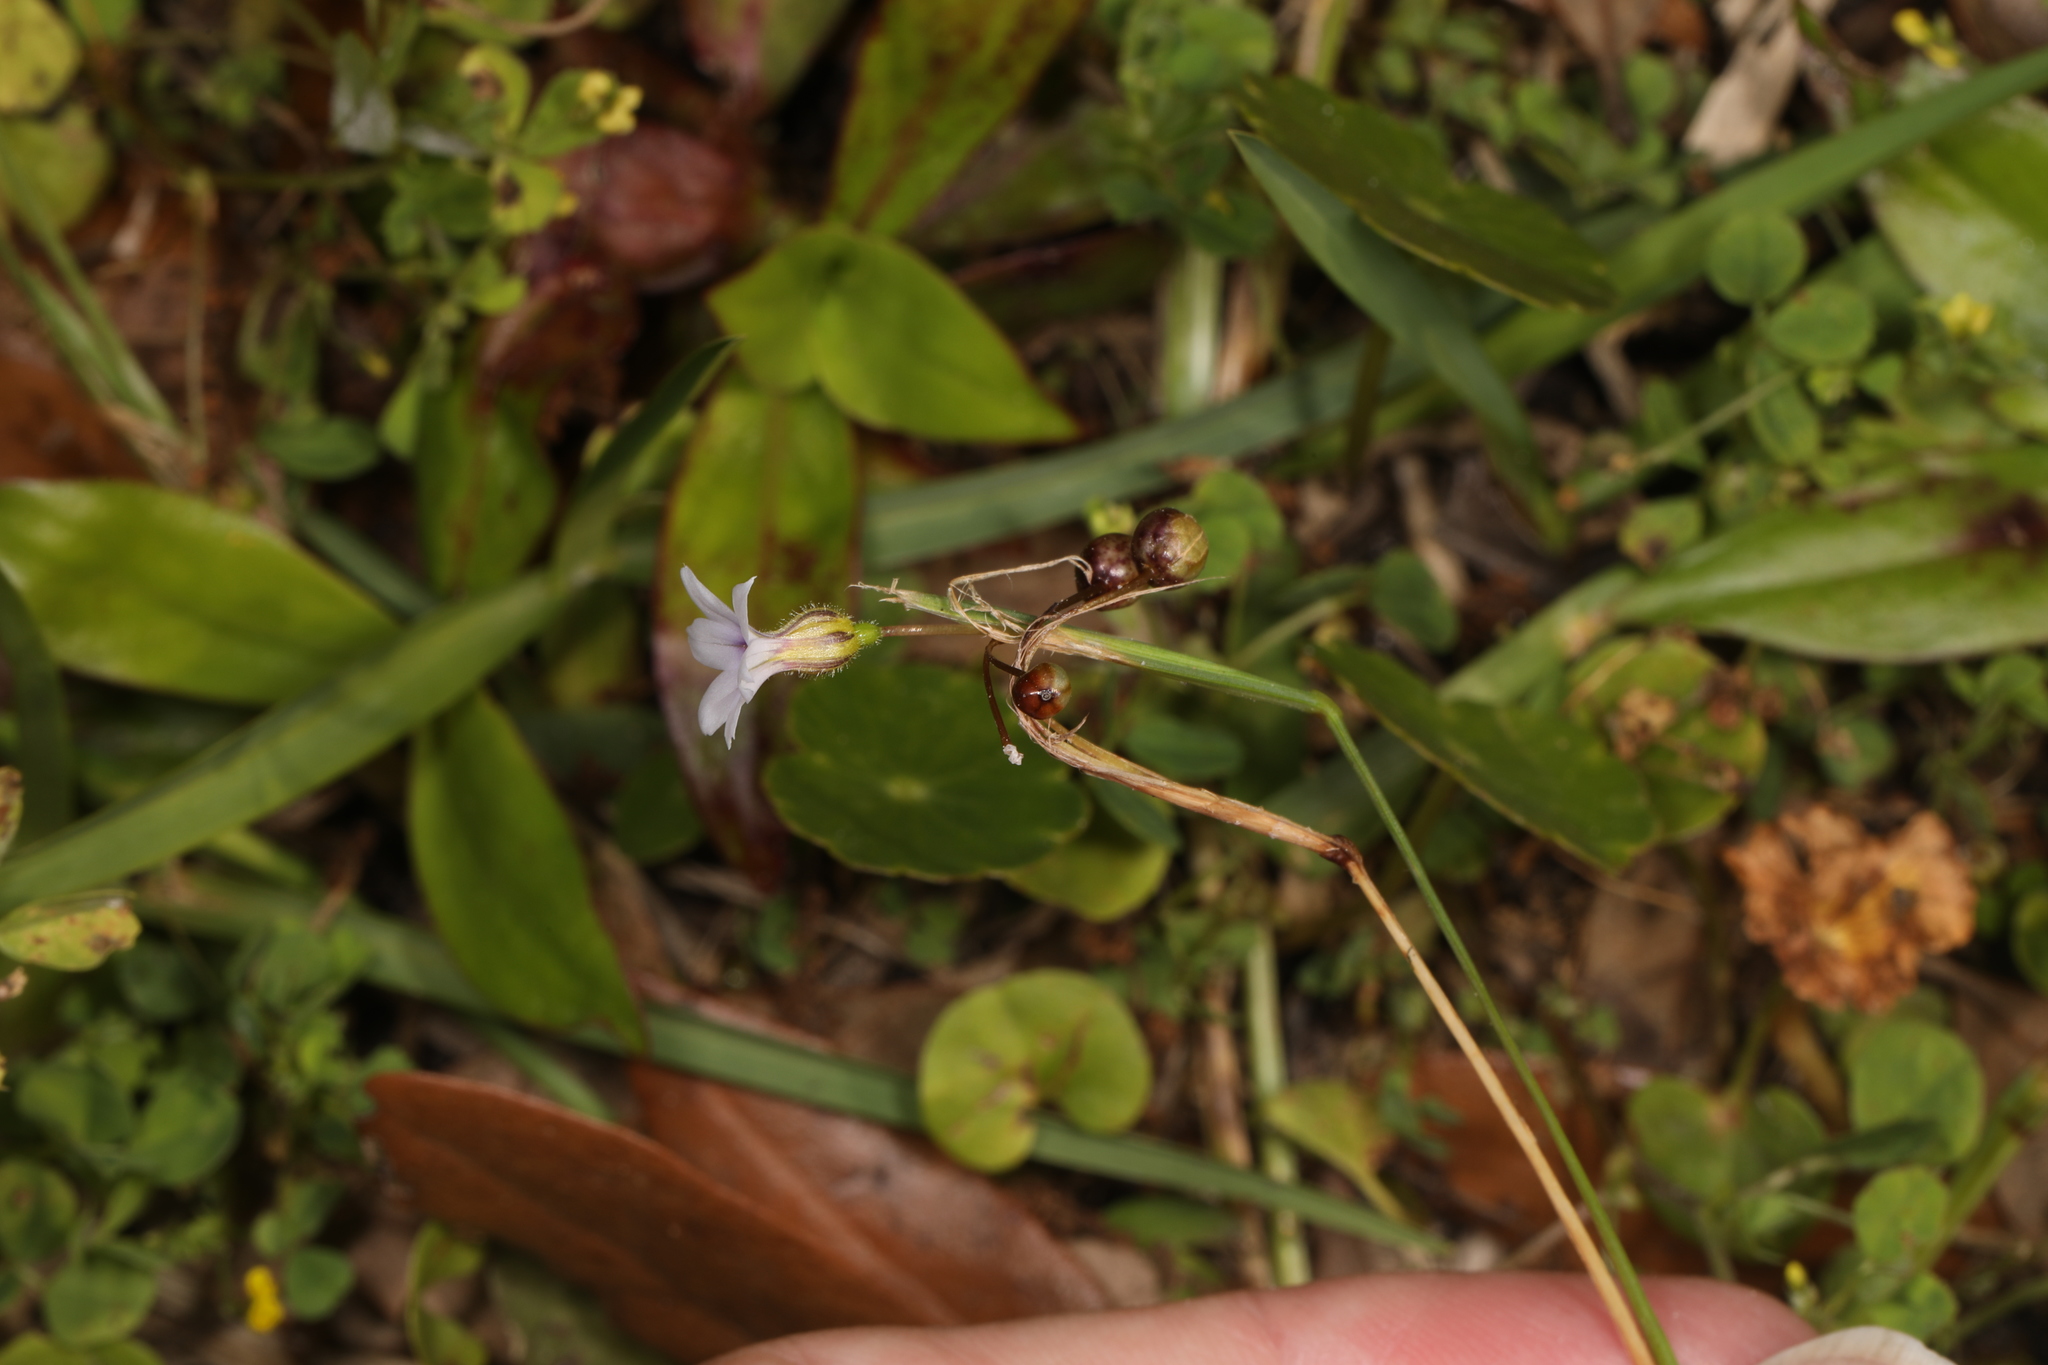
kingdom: Plantae
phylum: Tracheophyta
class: Liliopsida
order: Asparagales
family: Iridaceae
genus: Sisyrinchium
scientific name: Sisyrinchium micranthum
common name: Bermuda pigroot
